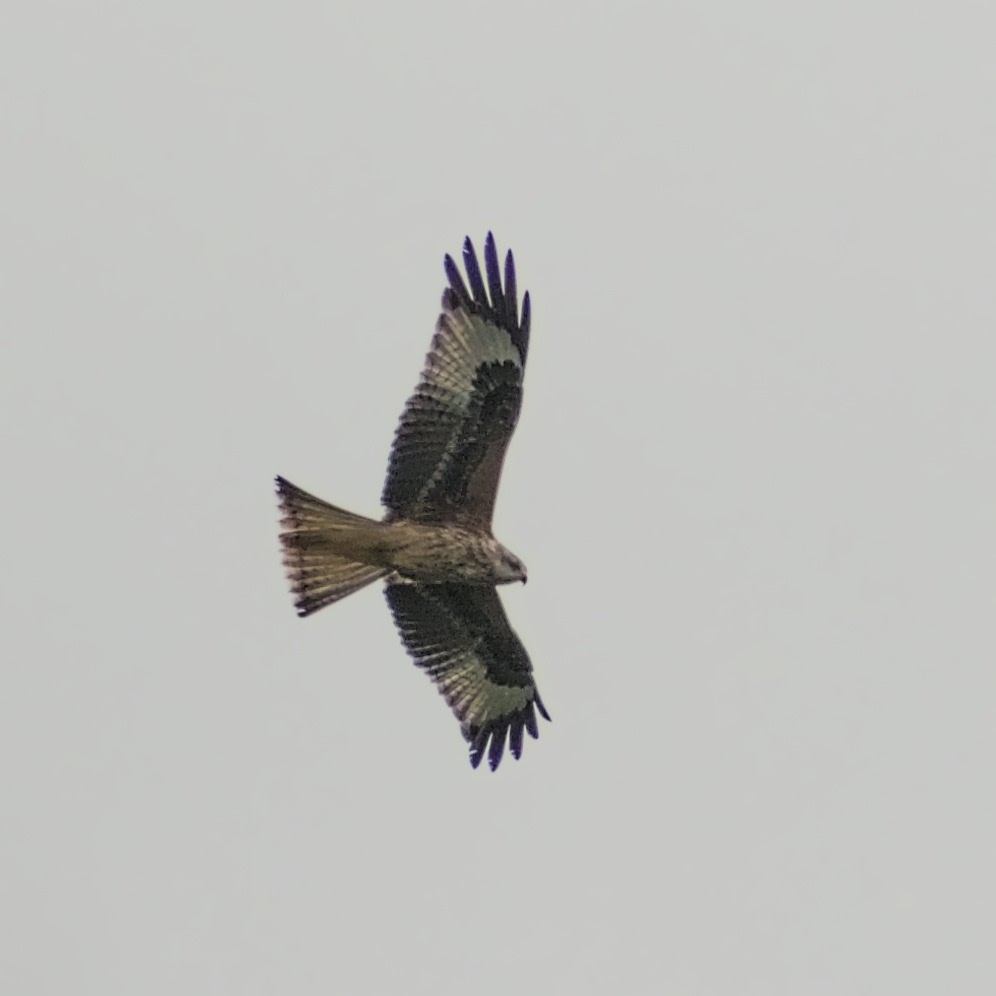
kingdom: Animalia
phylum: Chordata
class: Aves
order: Accipitriformes
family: Accipitridae
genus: Milvus
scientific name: Milvus milvus
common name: Red kite
